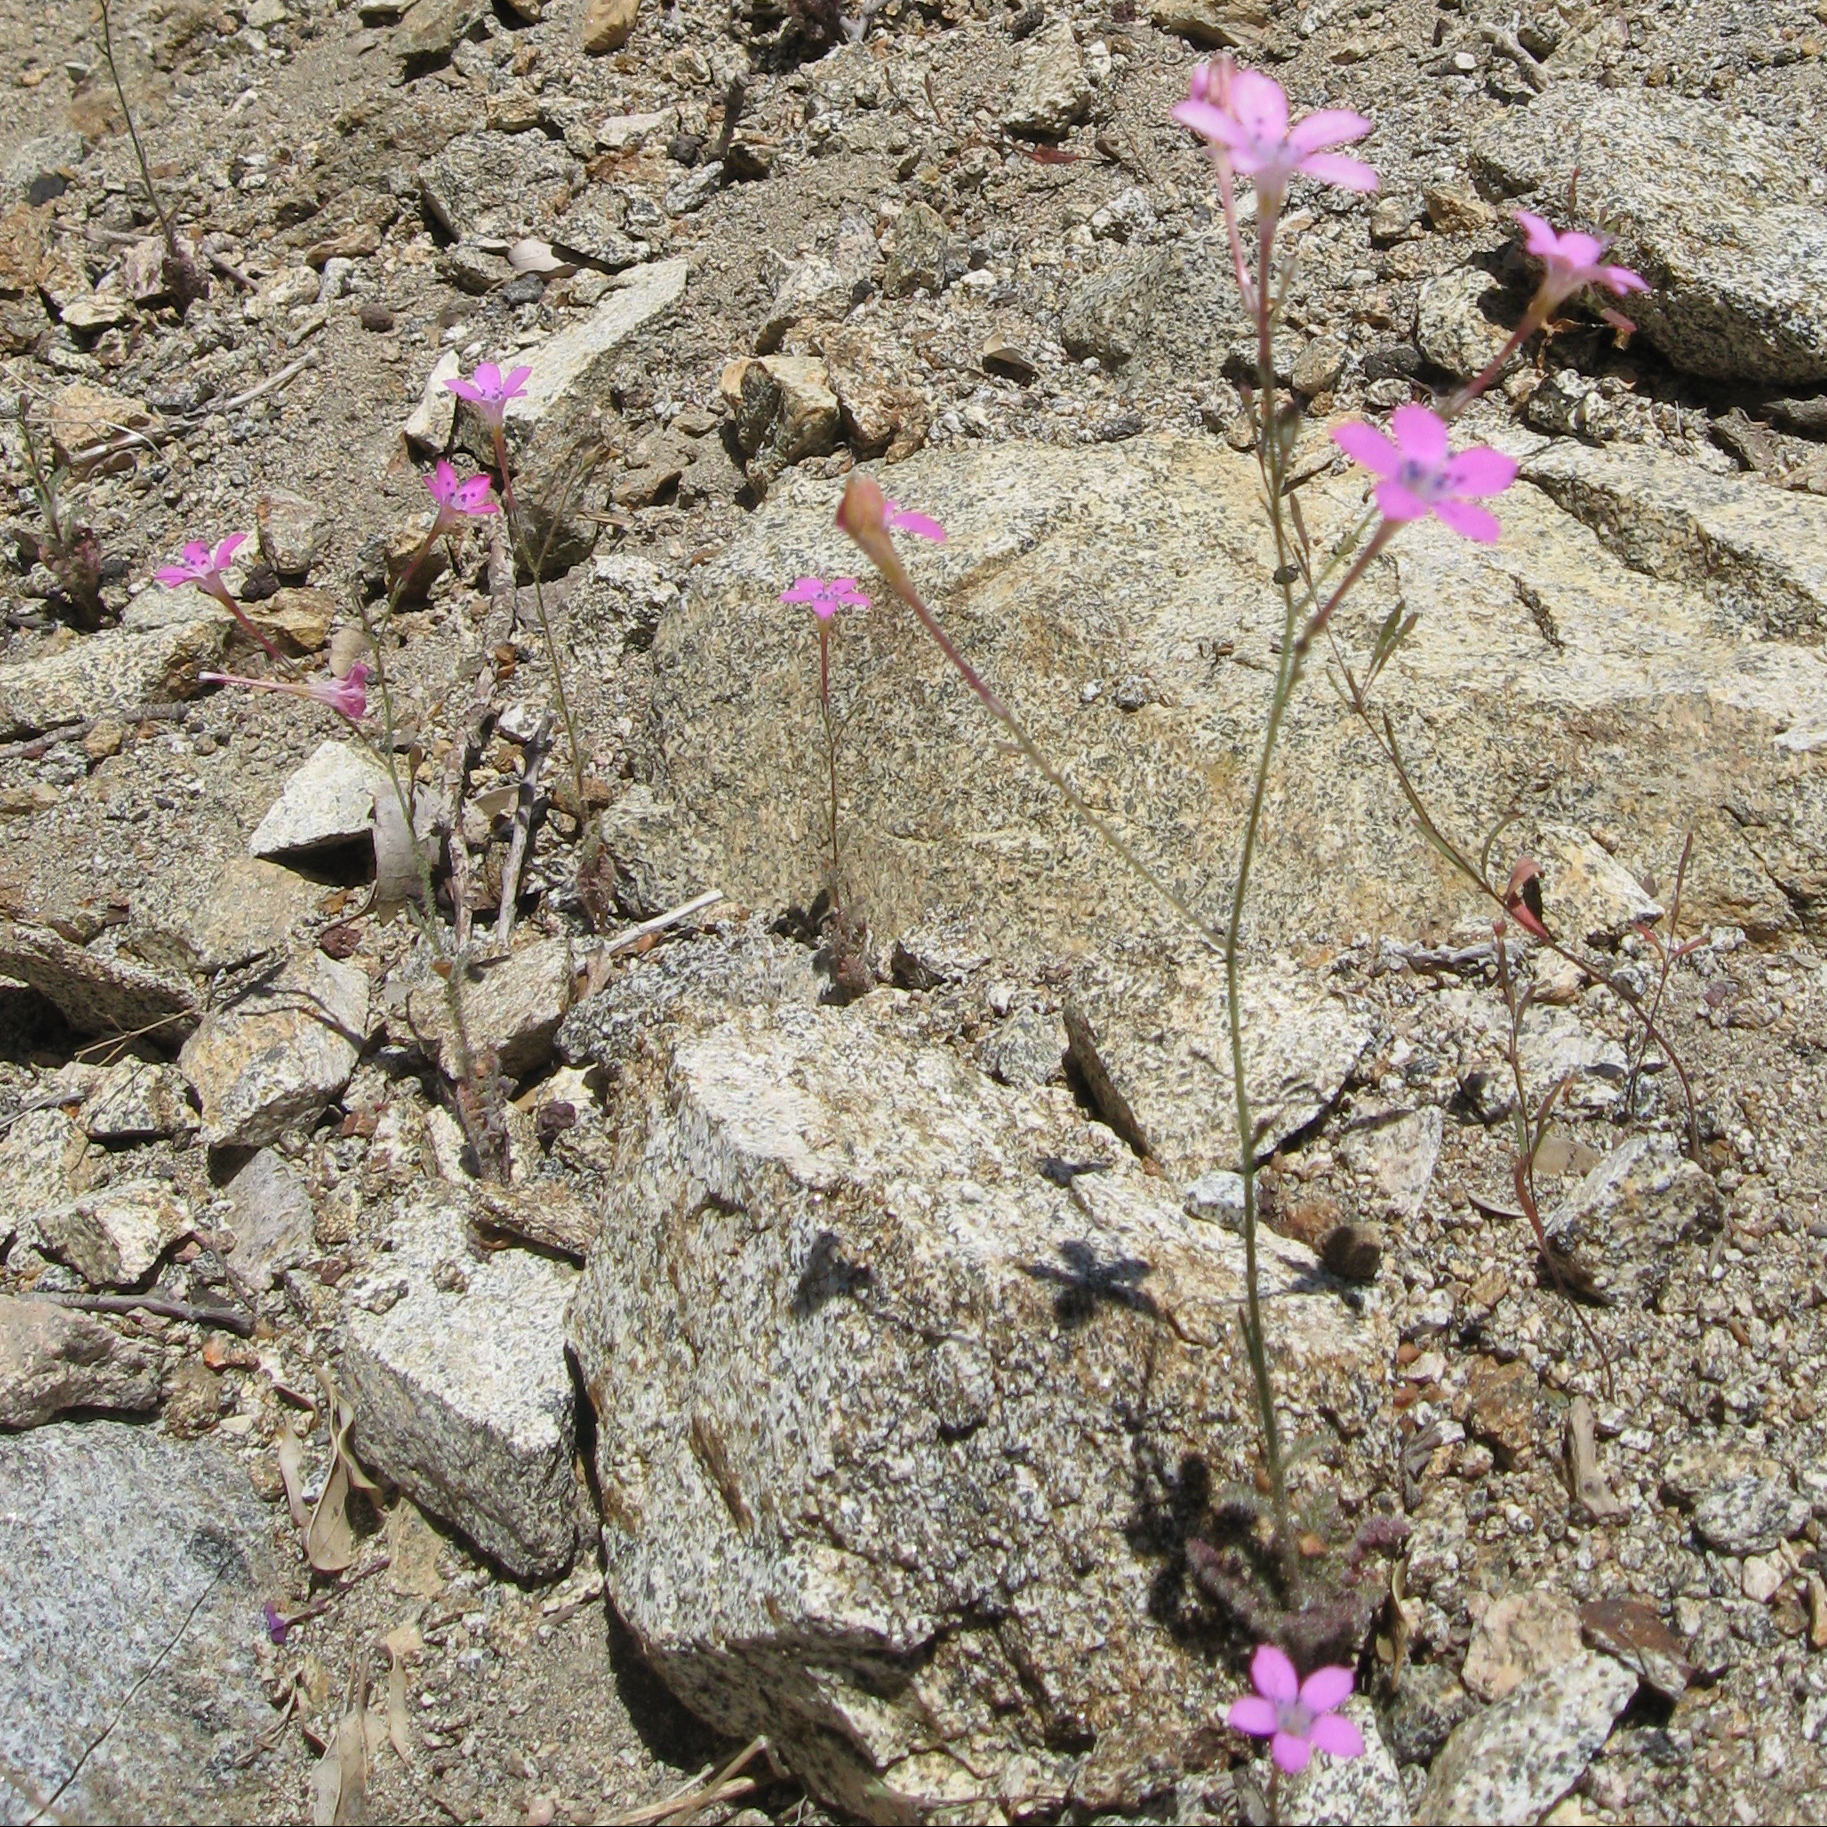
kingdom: Plantae
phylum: Tracheophyta
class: Magnoliopsida
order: Ericales
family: Polemoniaceae
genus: Saltugilia
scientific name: Saltugilia splendens
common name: Grinnell's gilia
